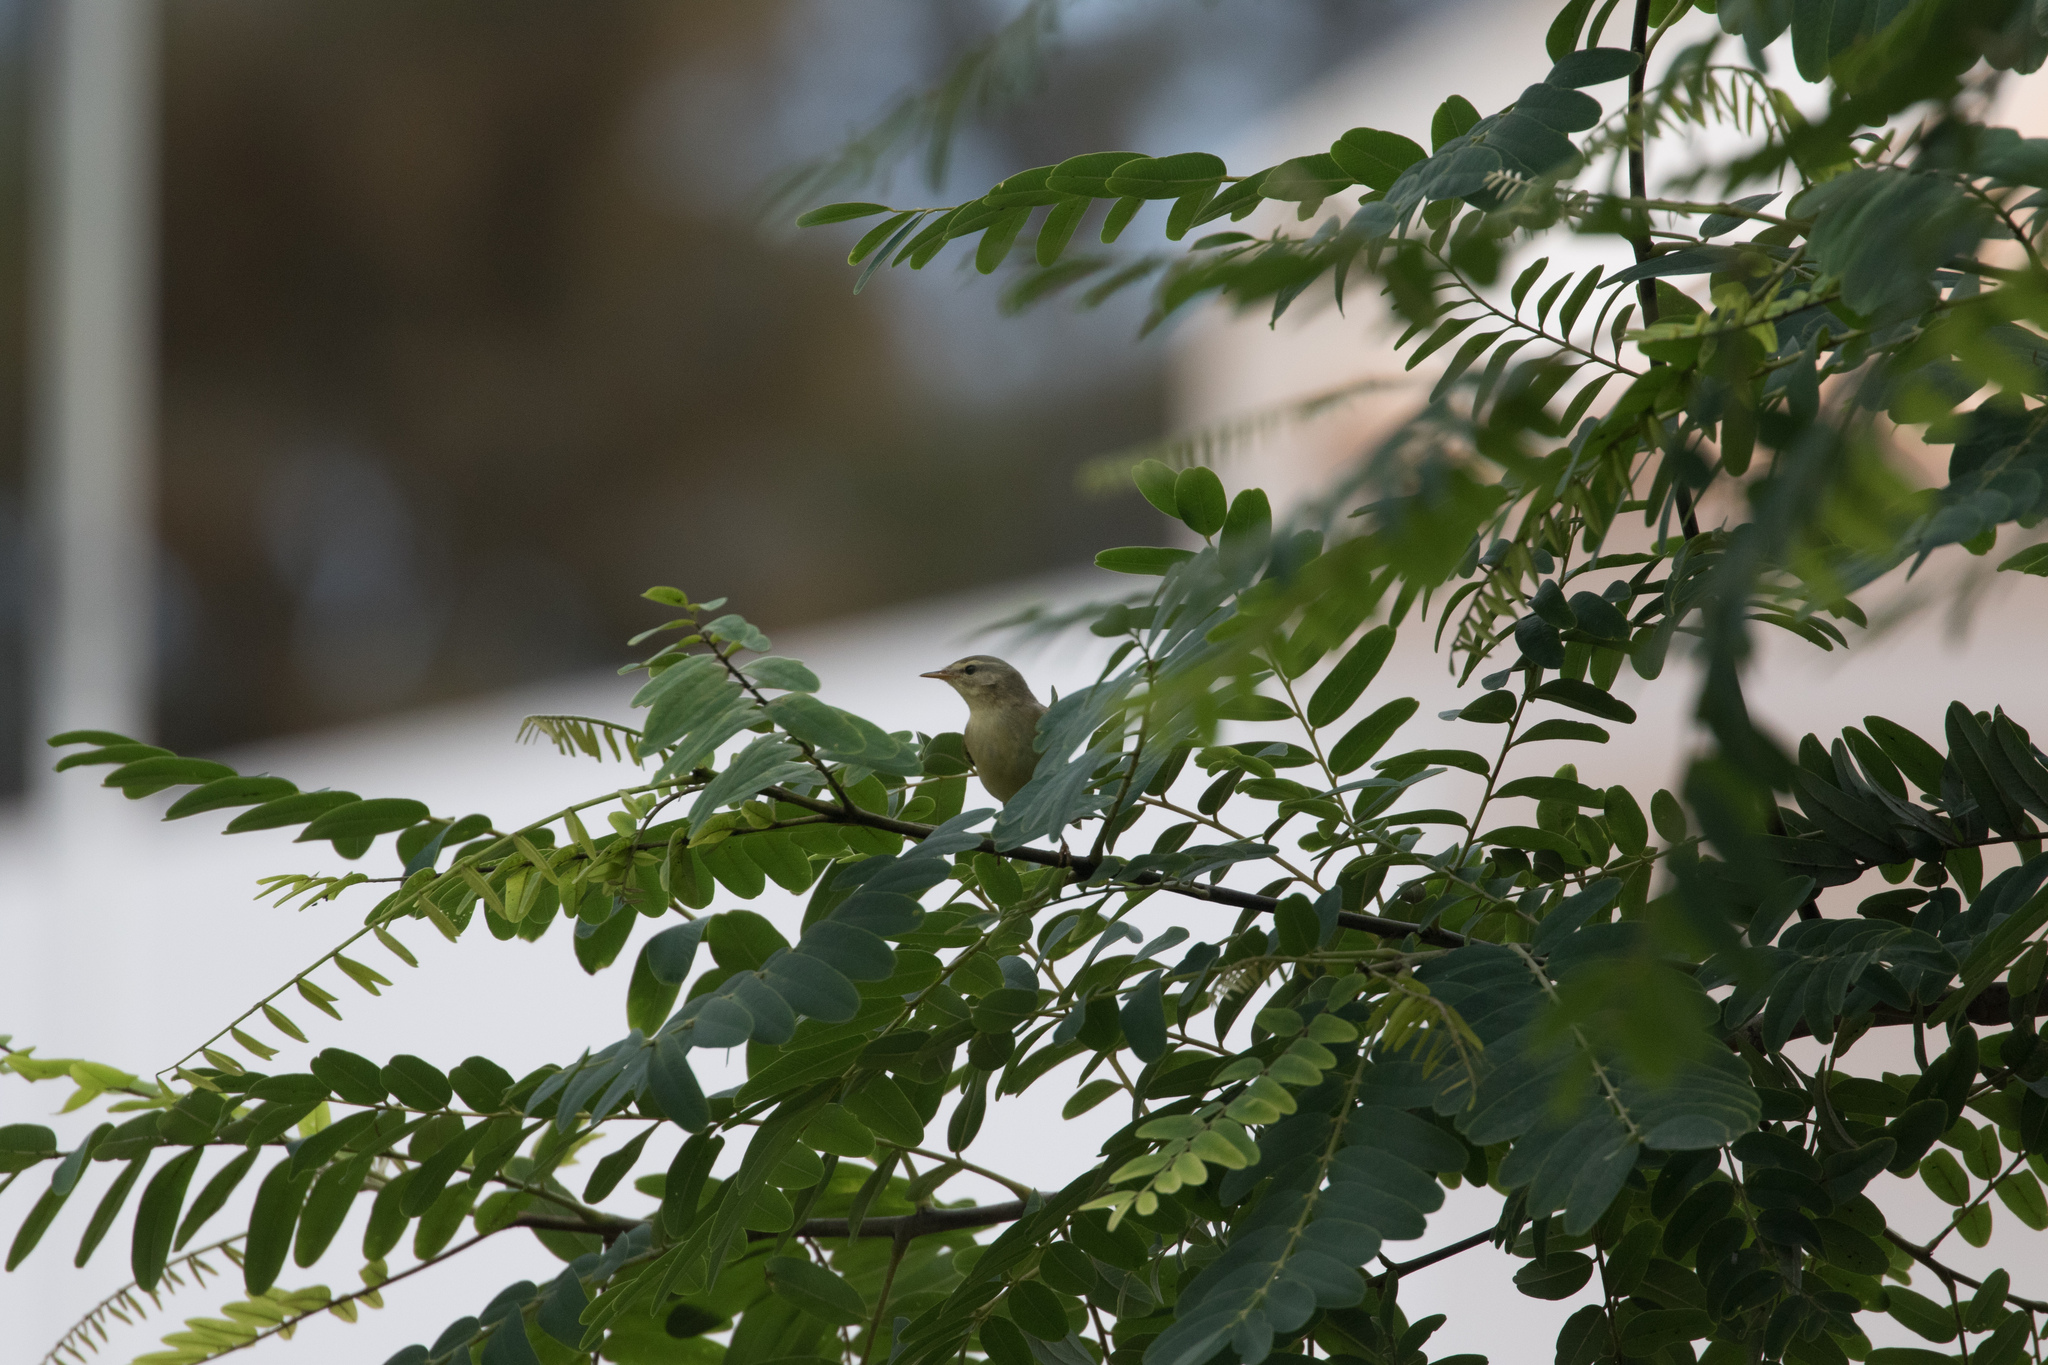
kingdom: Animalia
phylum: Chordata
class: Aves
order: Passeriformes
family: Phylloscopidae
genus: Phylloscopus
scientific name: Phylloscopus trochilus
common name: Willow warbler
